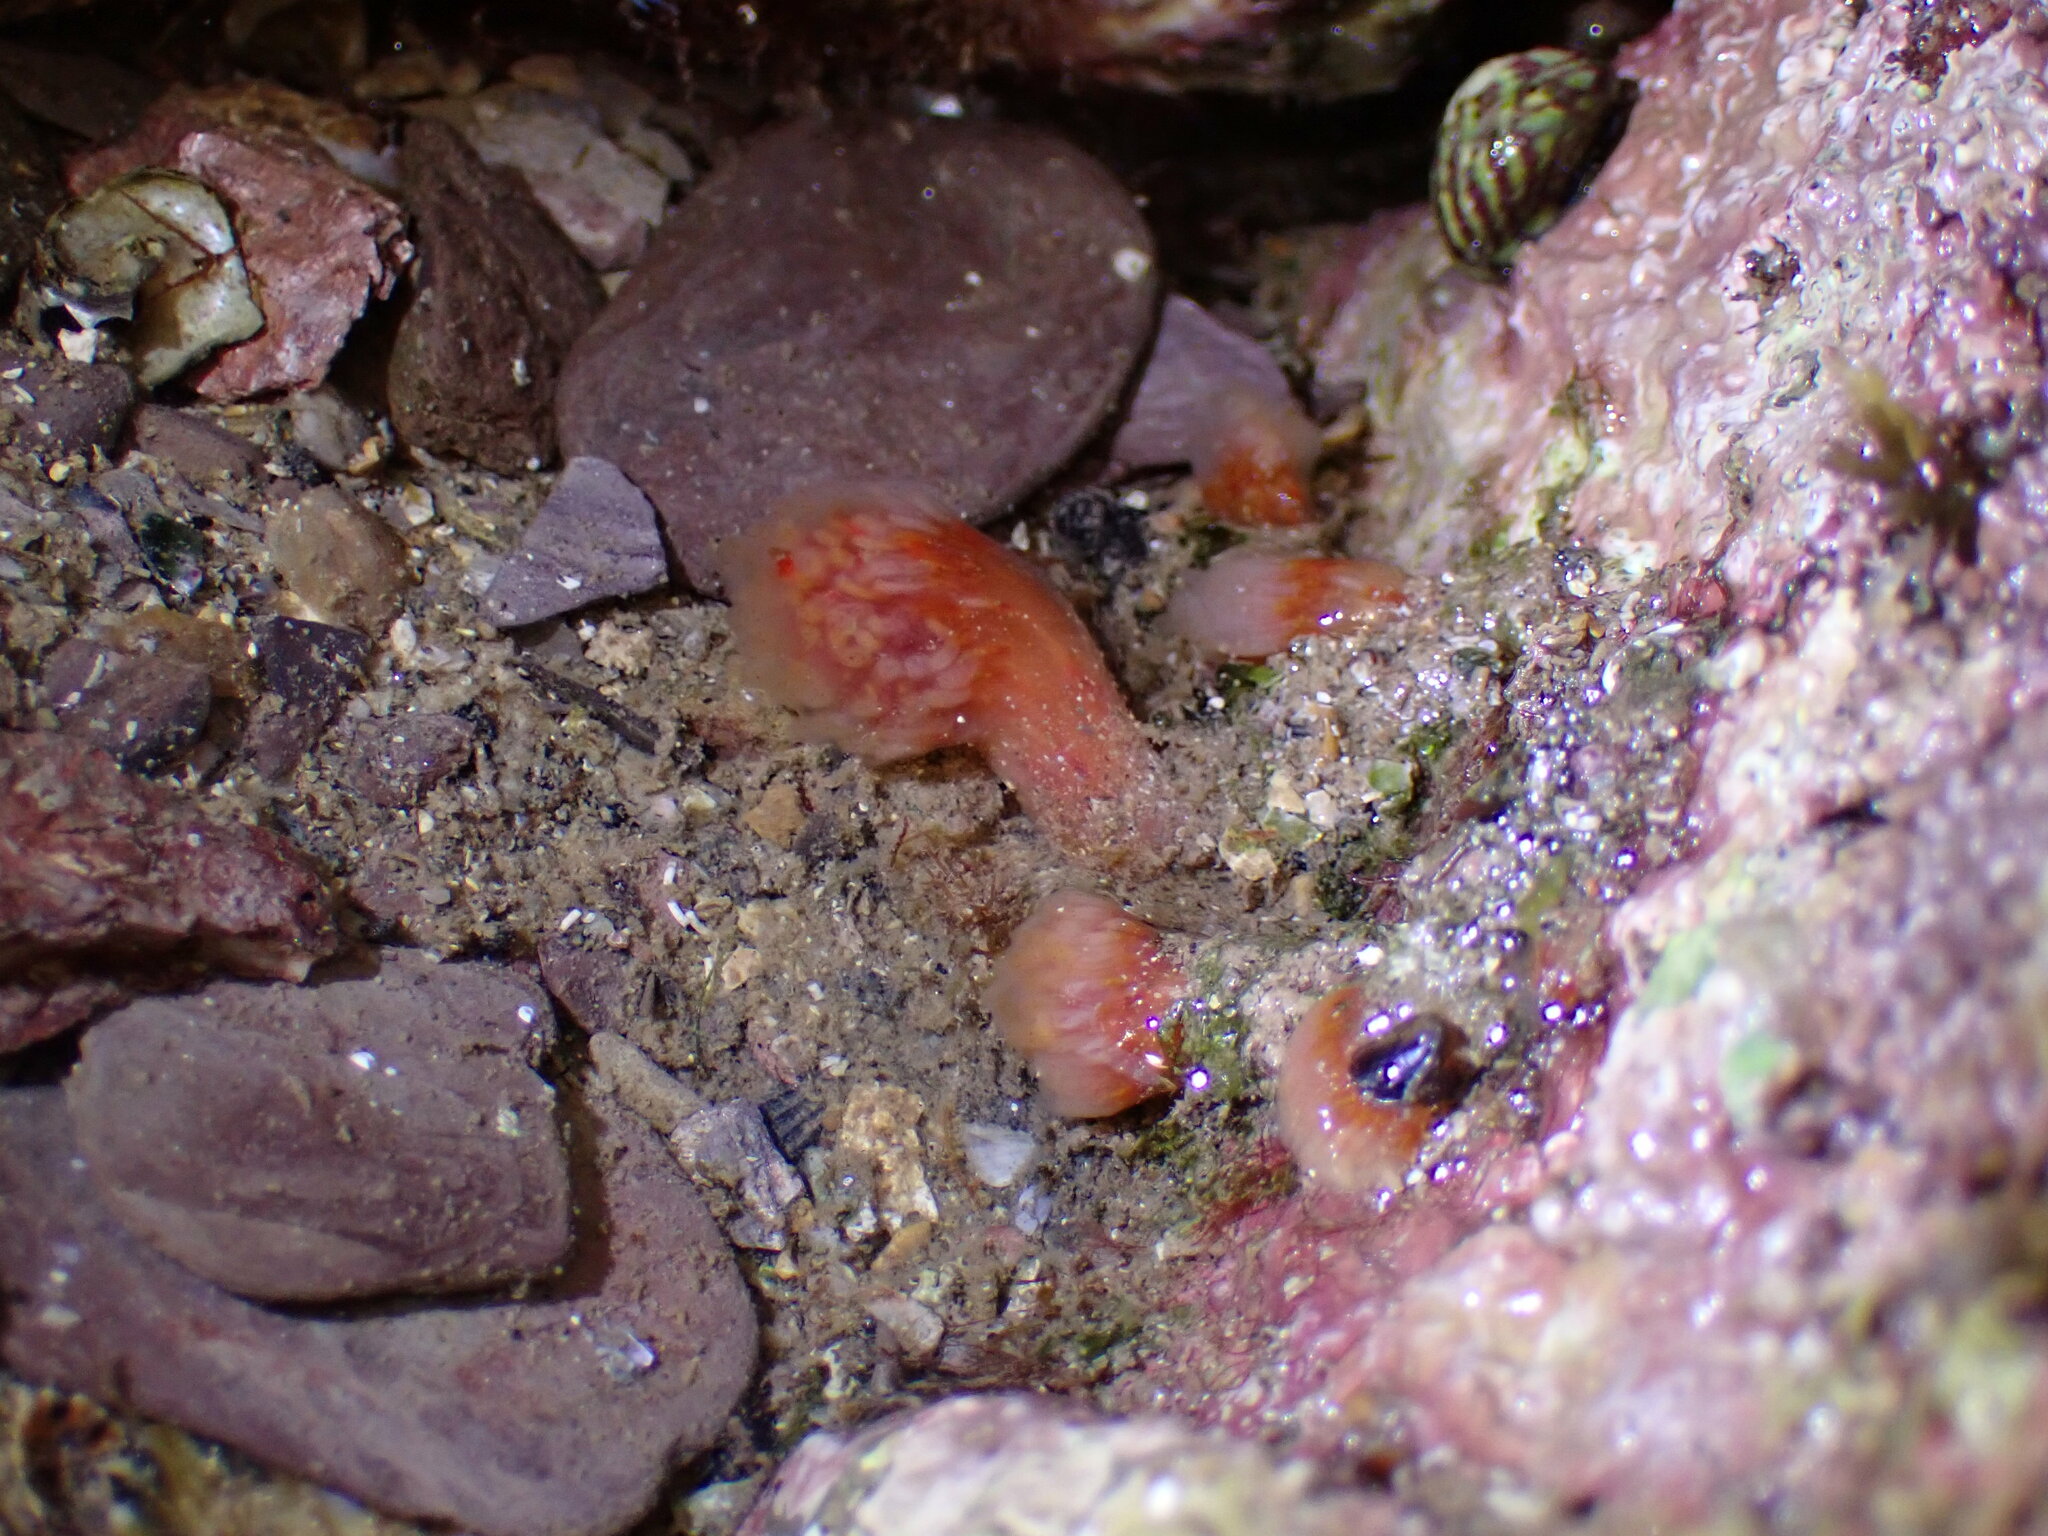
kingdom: Animalia
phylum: Chordata
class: Ascidiacea
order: Aplousobranchia
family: Polyclinidae
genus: Morchellium
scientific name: Morchellium argus
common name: Colonial sesquirt
